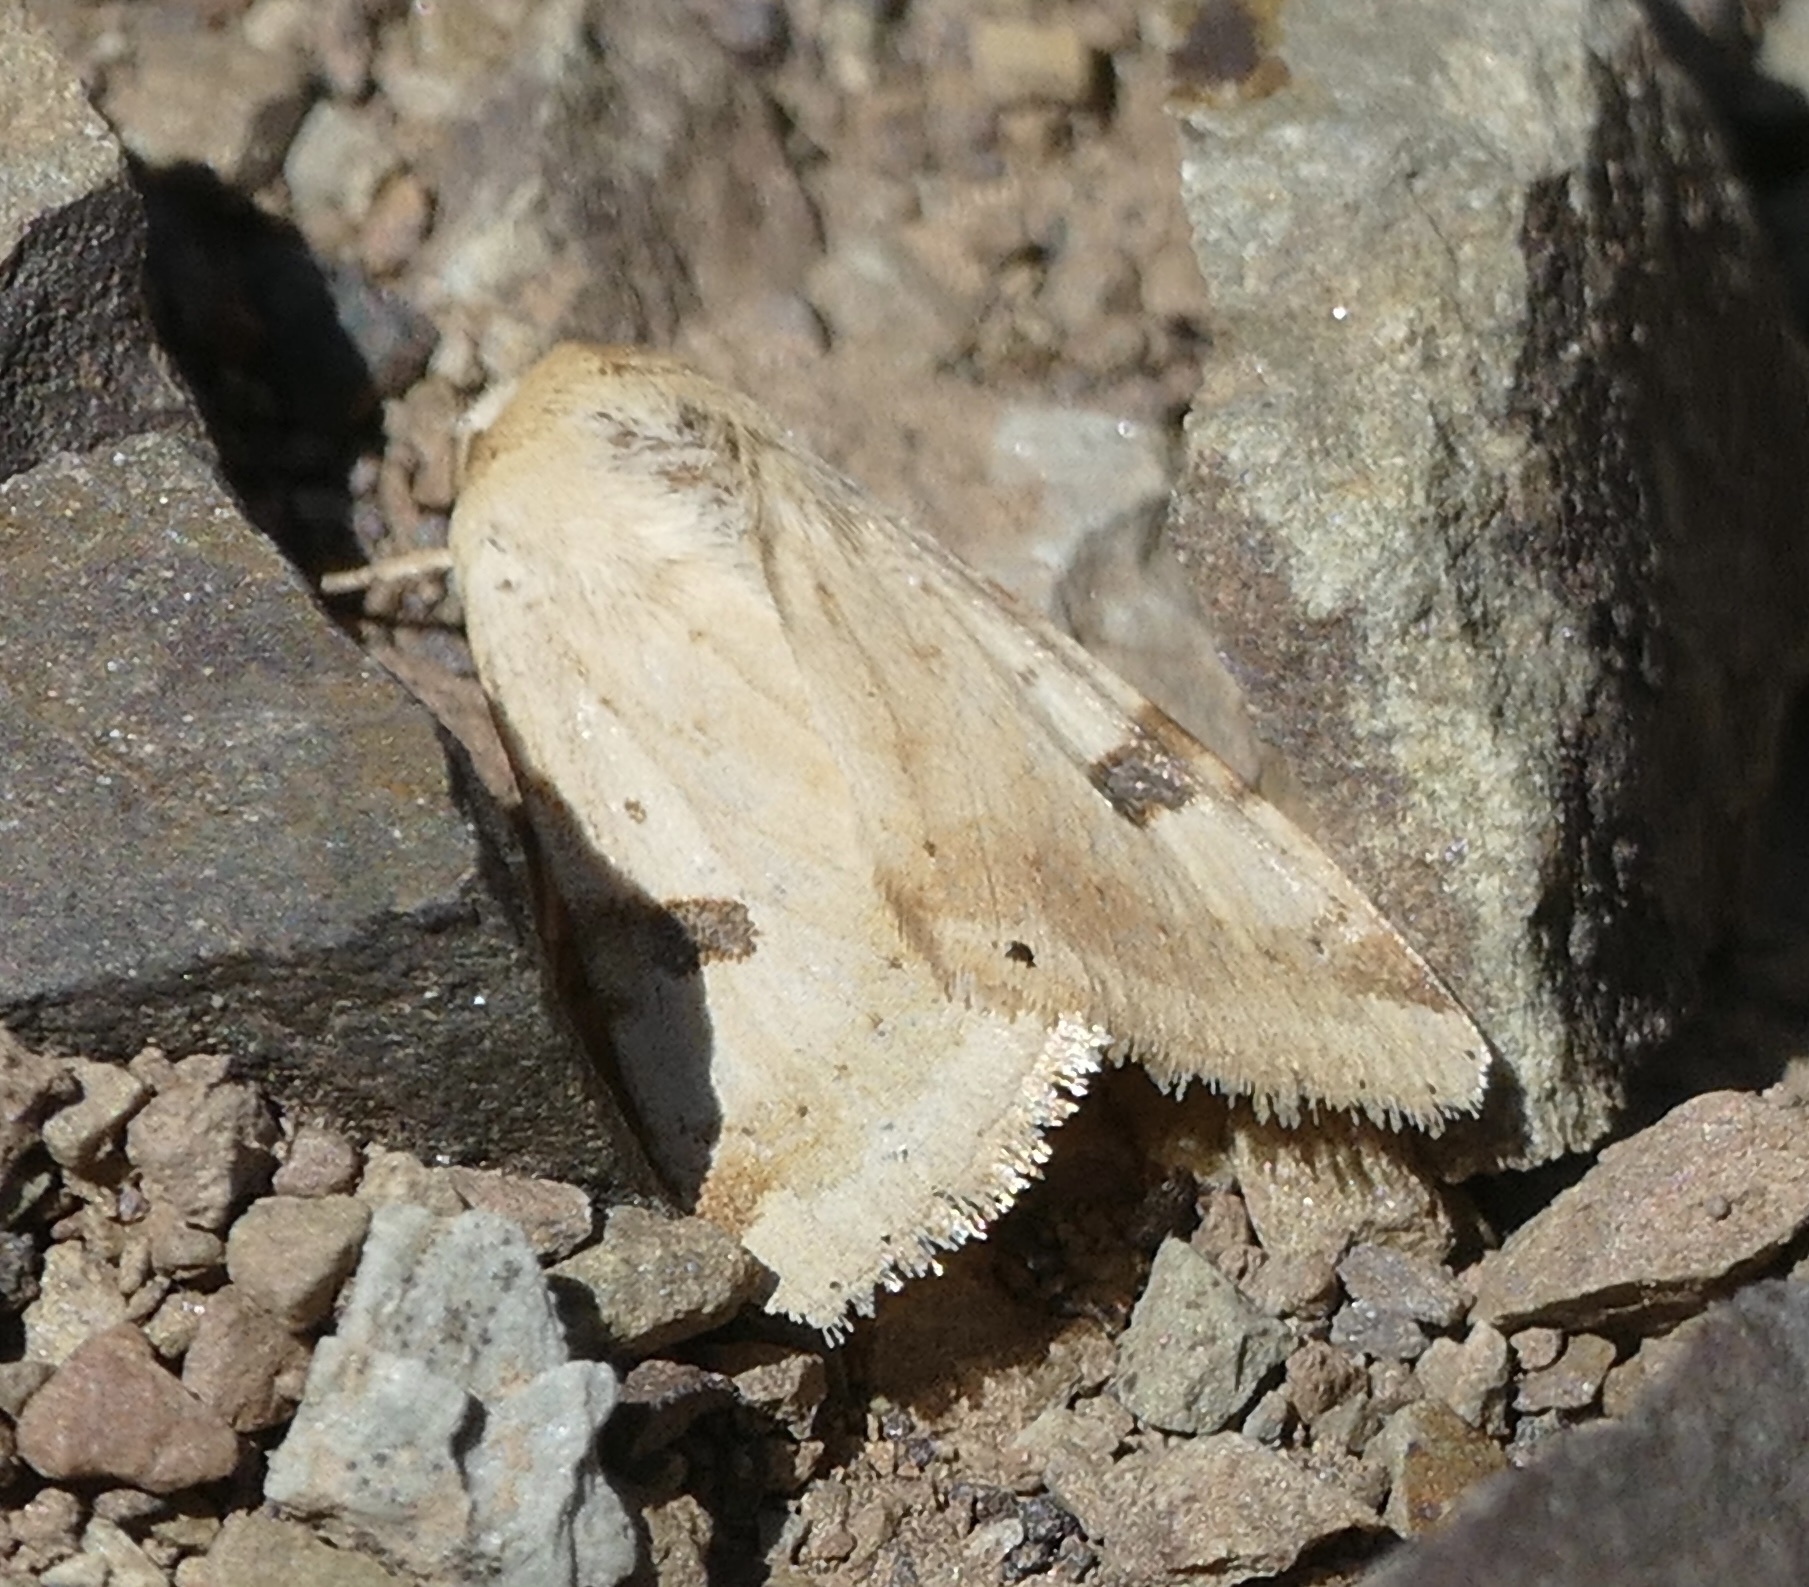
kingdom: Animalia
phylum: Arthropoda
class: Insecta
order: Lepidoptera
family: Noctuidae
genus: Heliothis
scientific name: Heliothis peltigera
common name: Bordered straw
